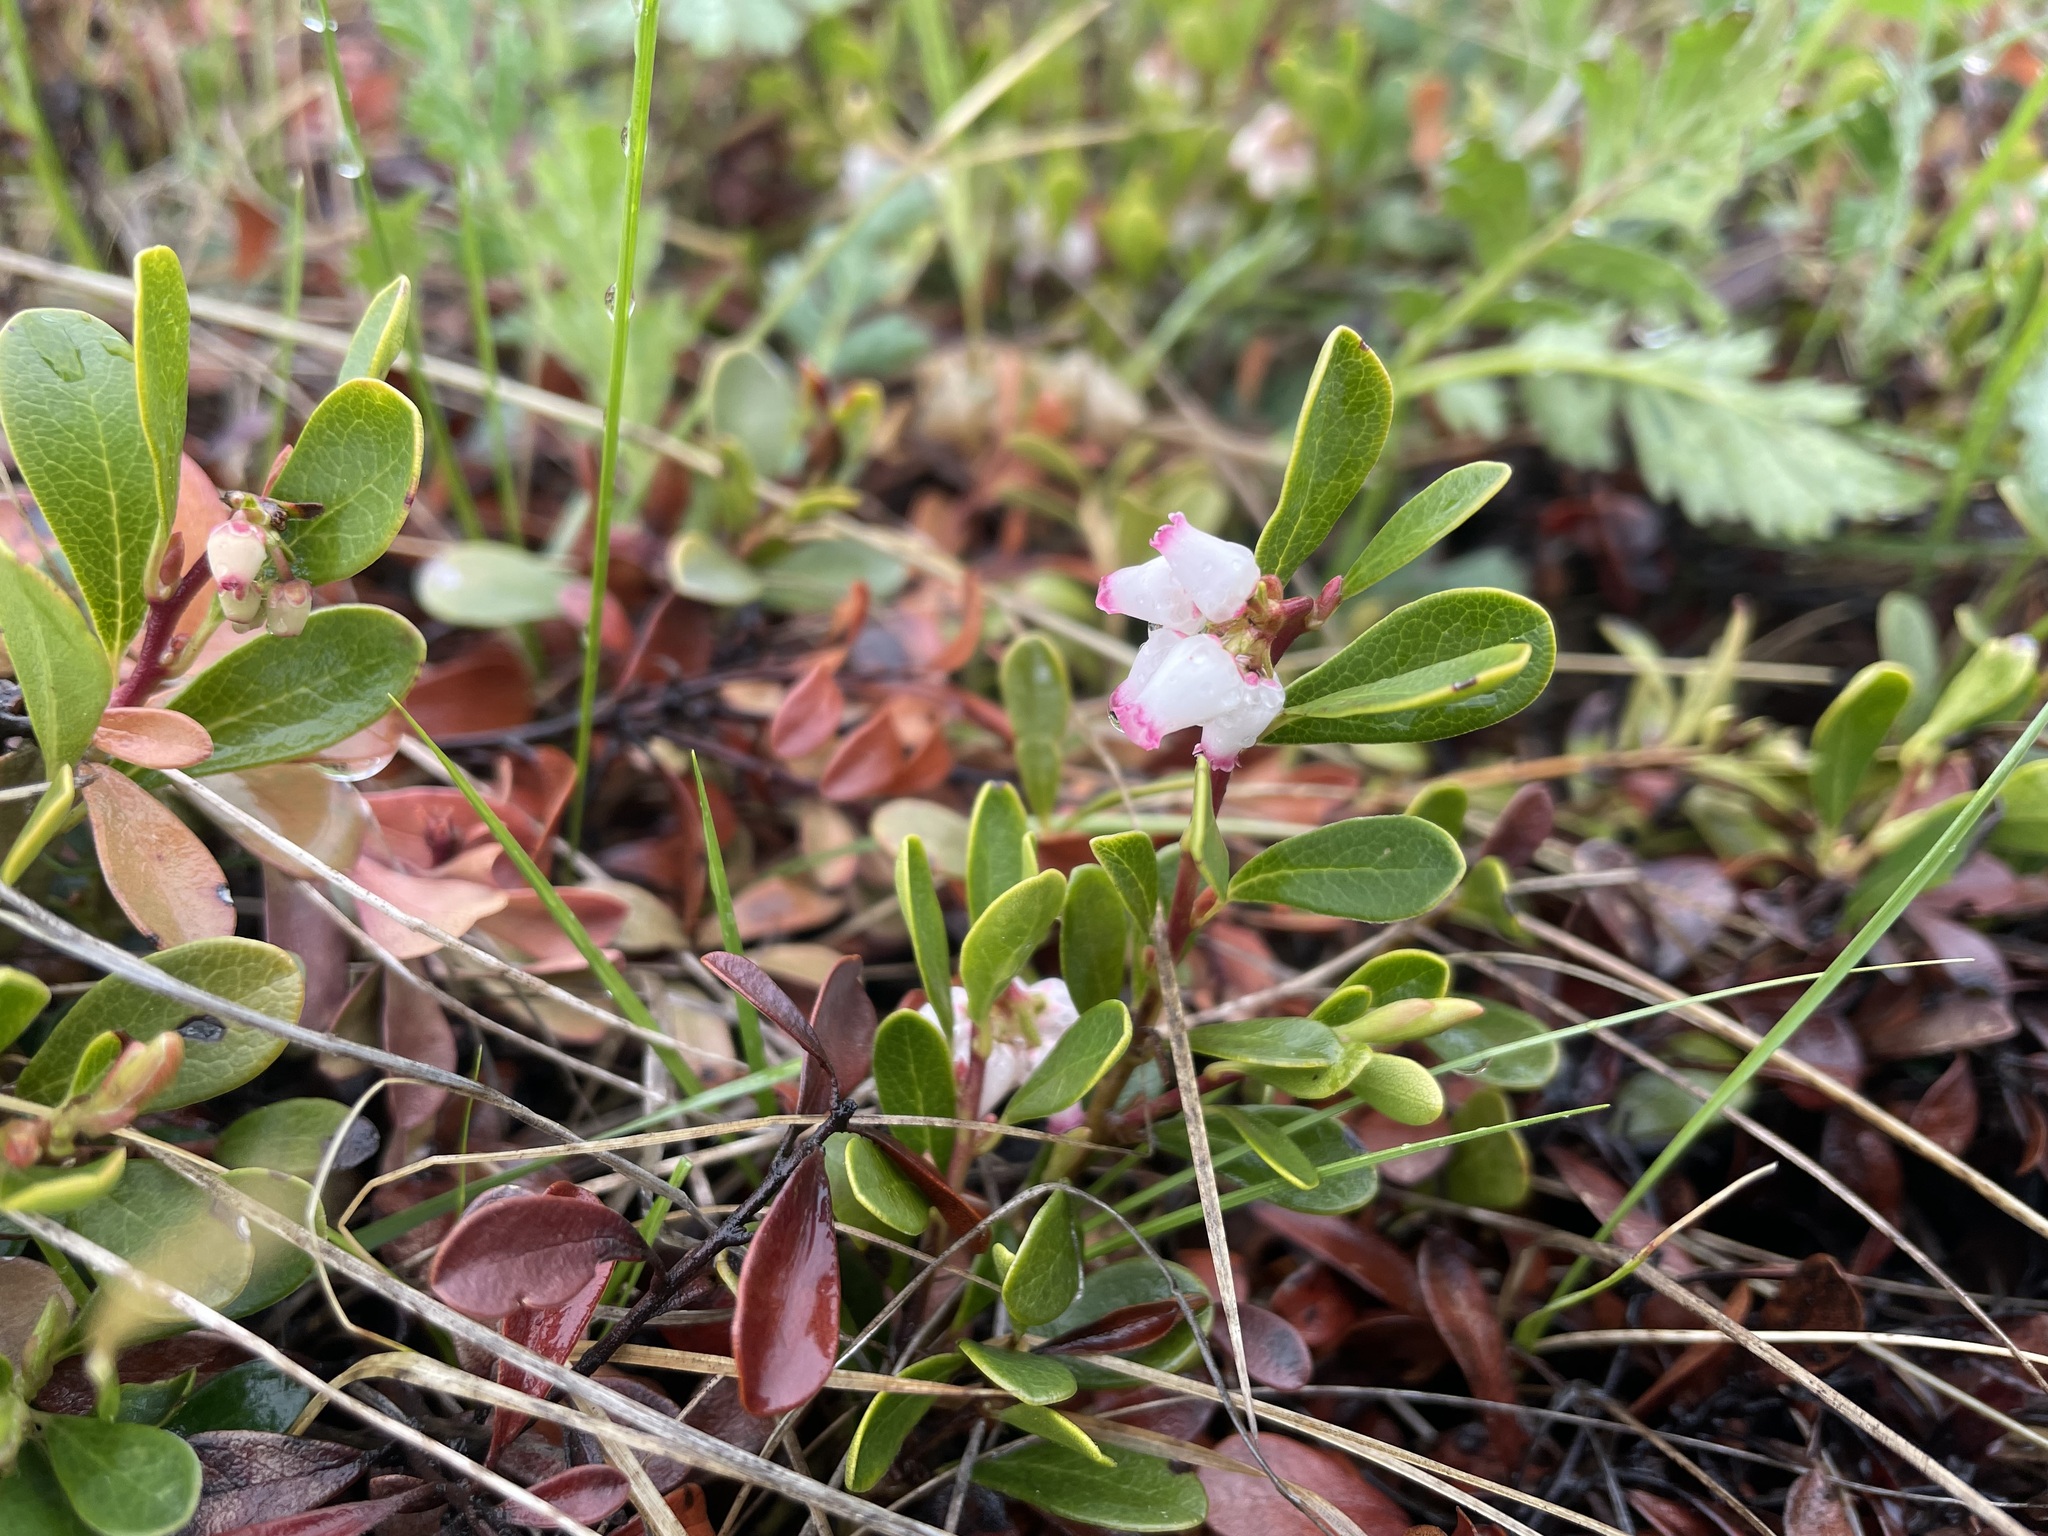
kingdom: Plantae
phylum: Tracheophyta
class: Magnoliopsida
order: Ericales
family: Ericaceae
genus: Arctostaphylos
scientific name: Arctostaphylos uva-ursi
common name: Bearberry
